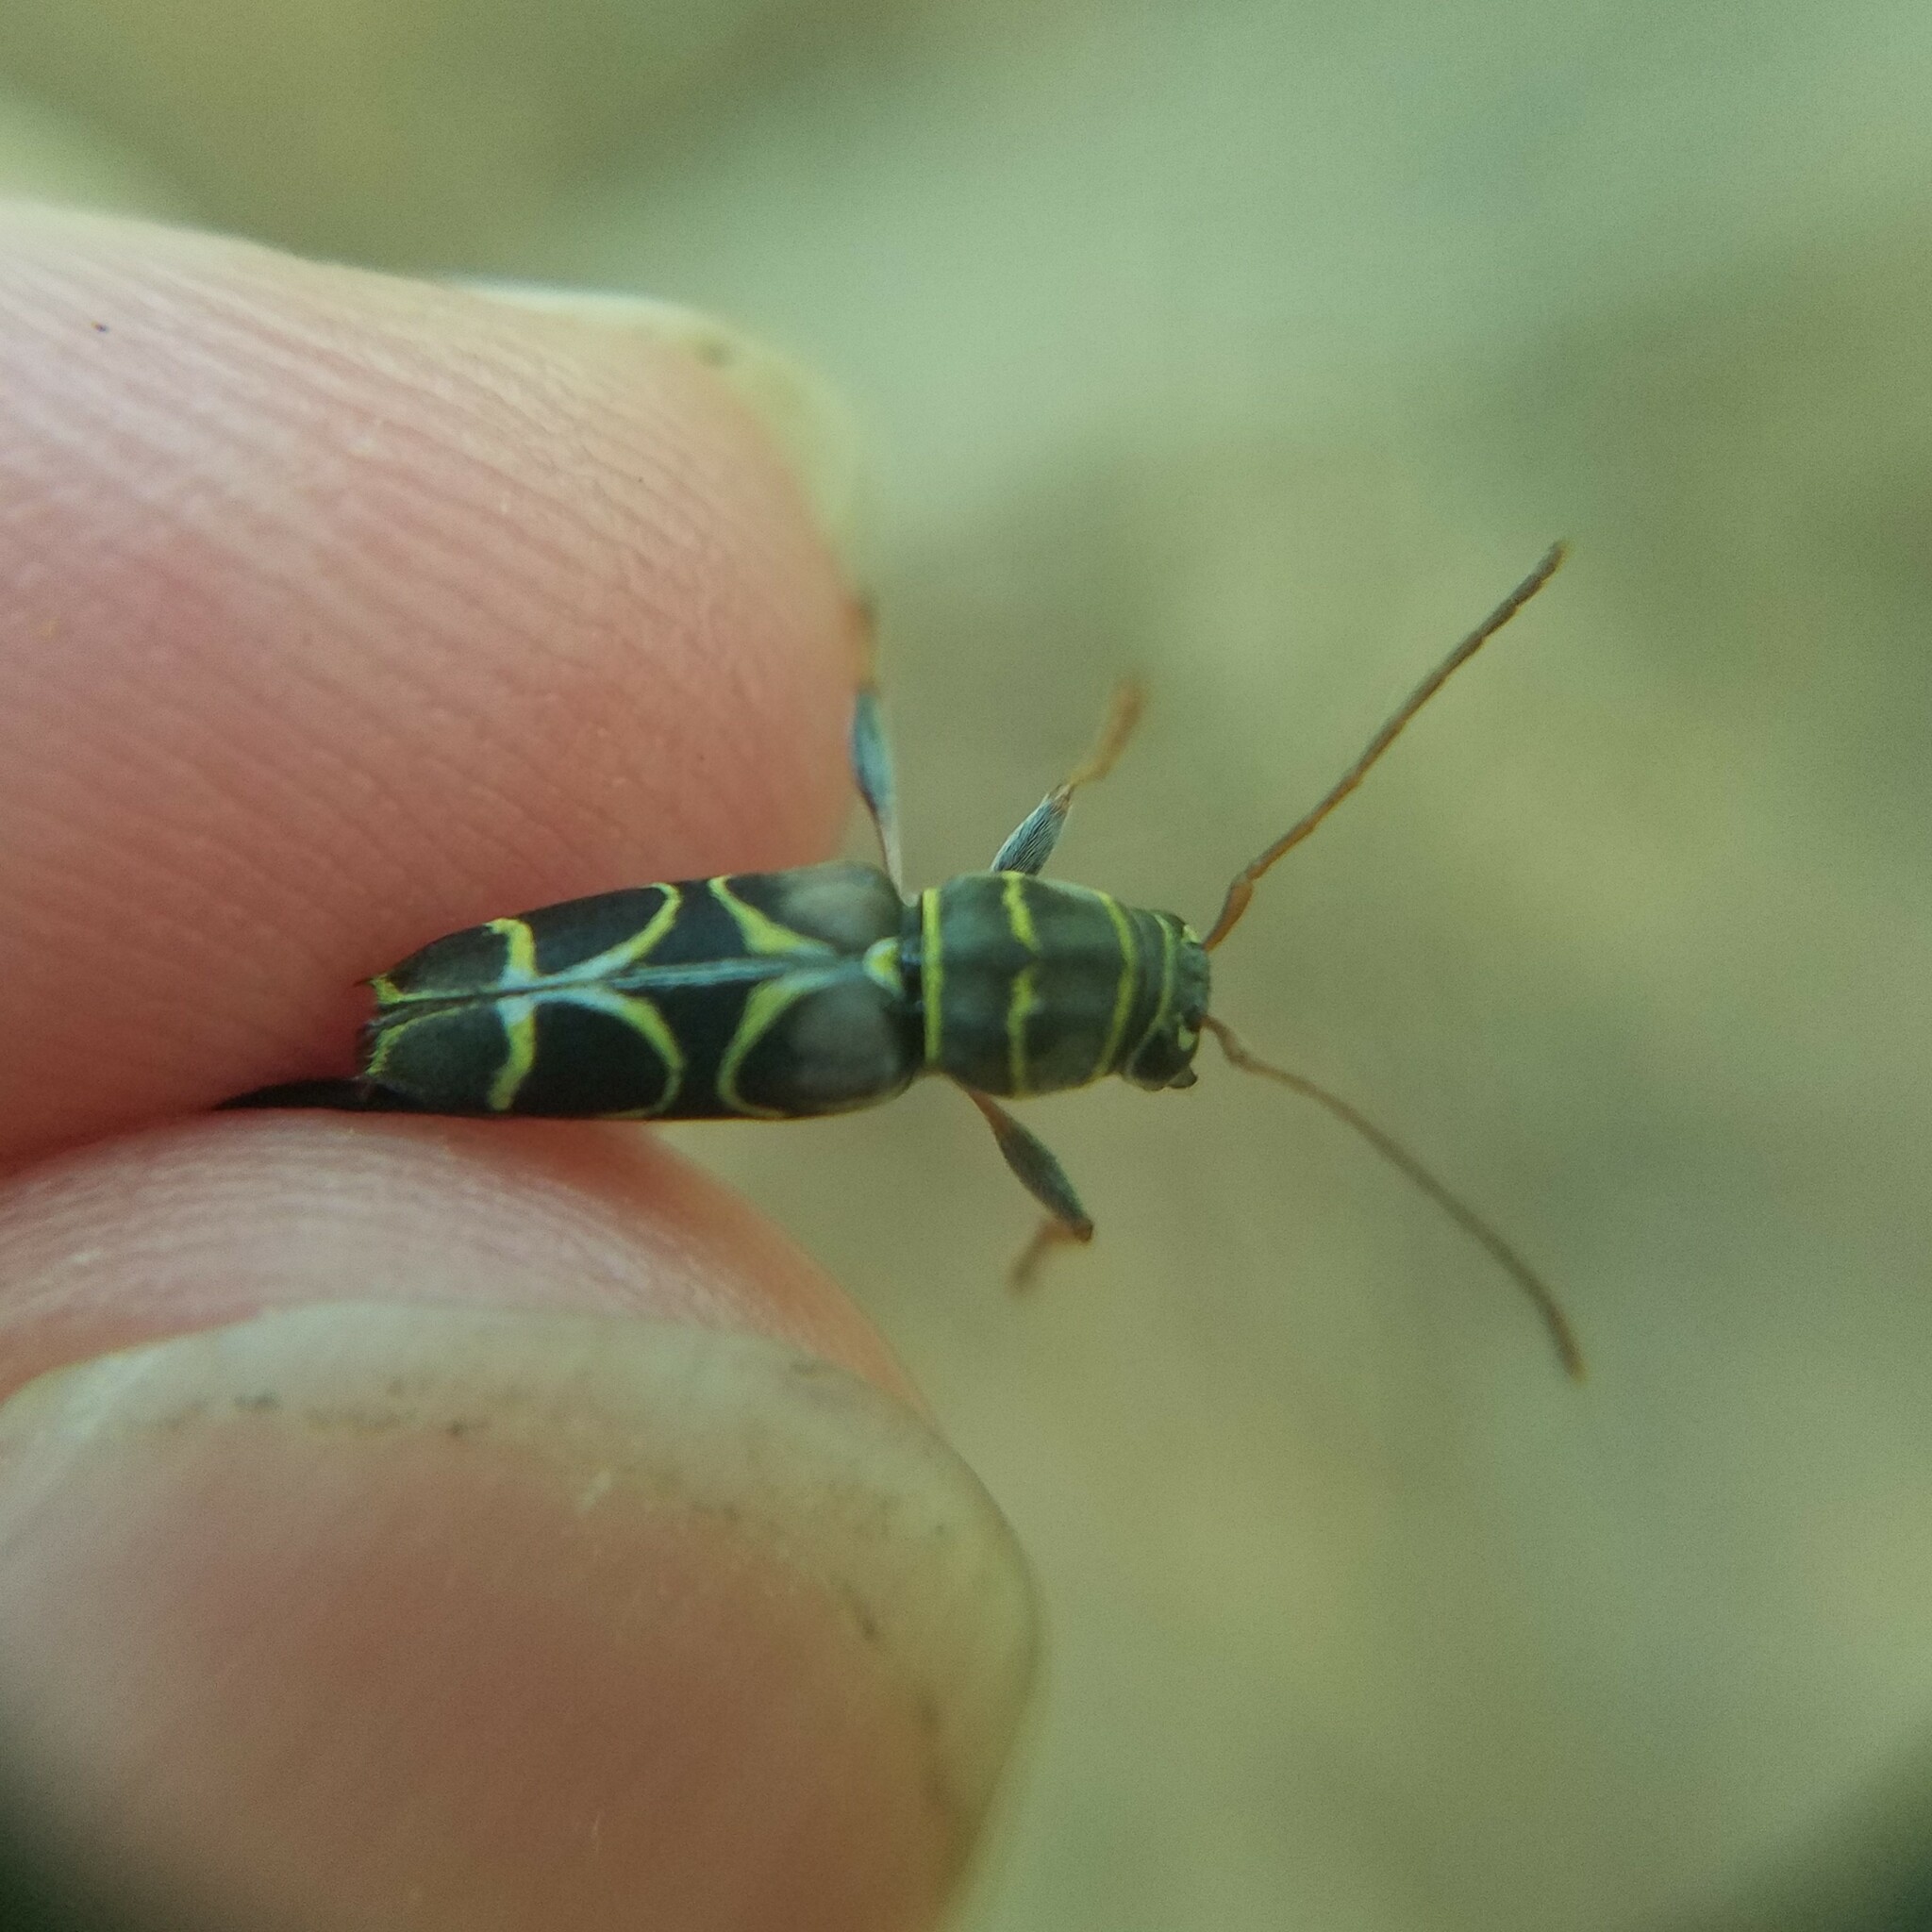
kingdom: Animalia
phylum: Arthropoda
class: Insecta
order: Coleoptera
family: Cerambycidae
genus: Neoclytus
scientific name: Neoclytus scutellaris
